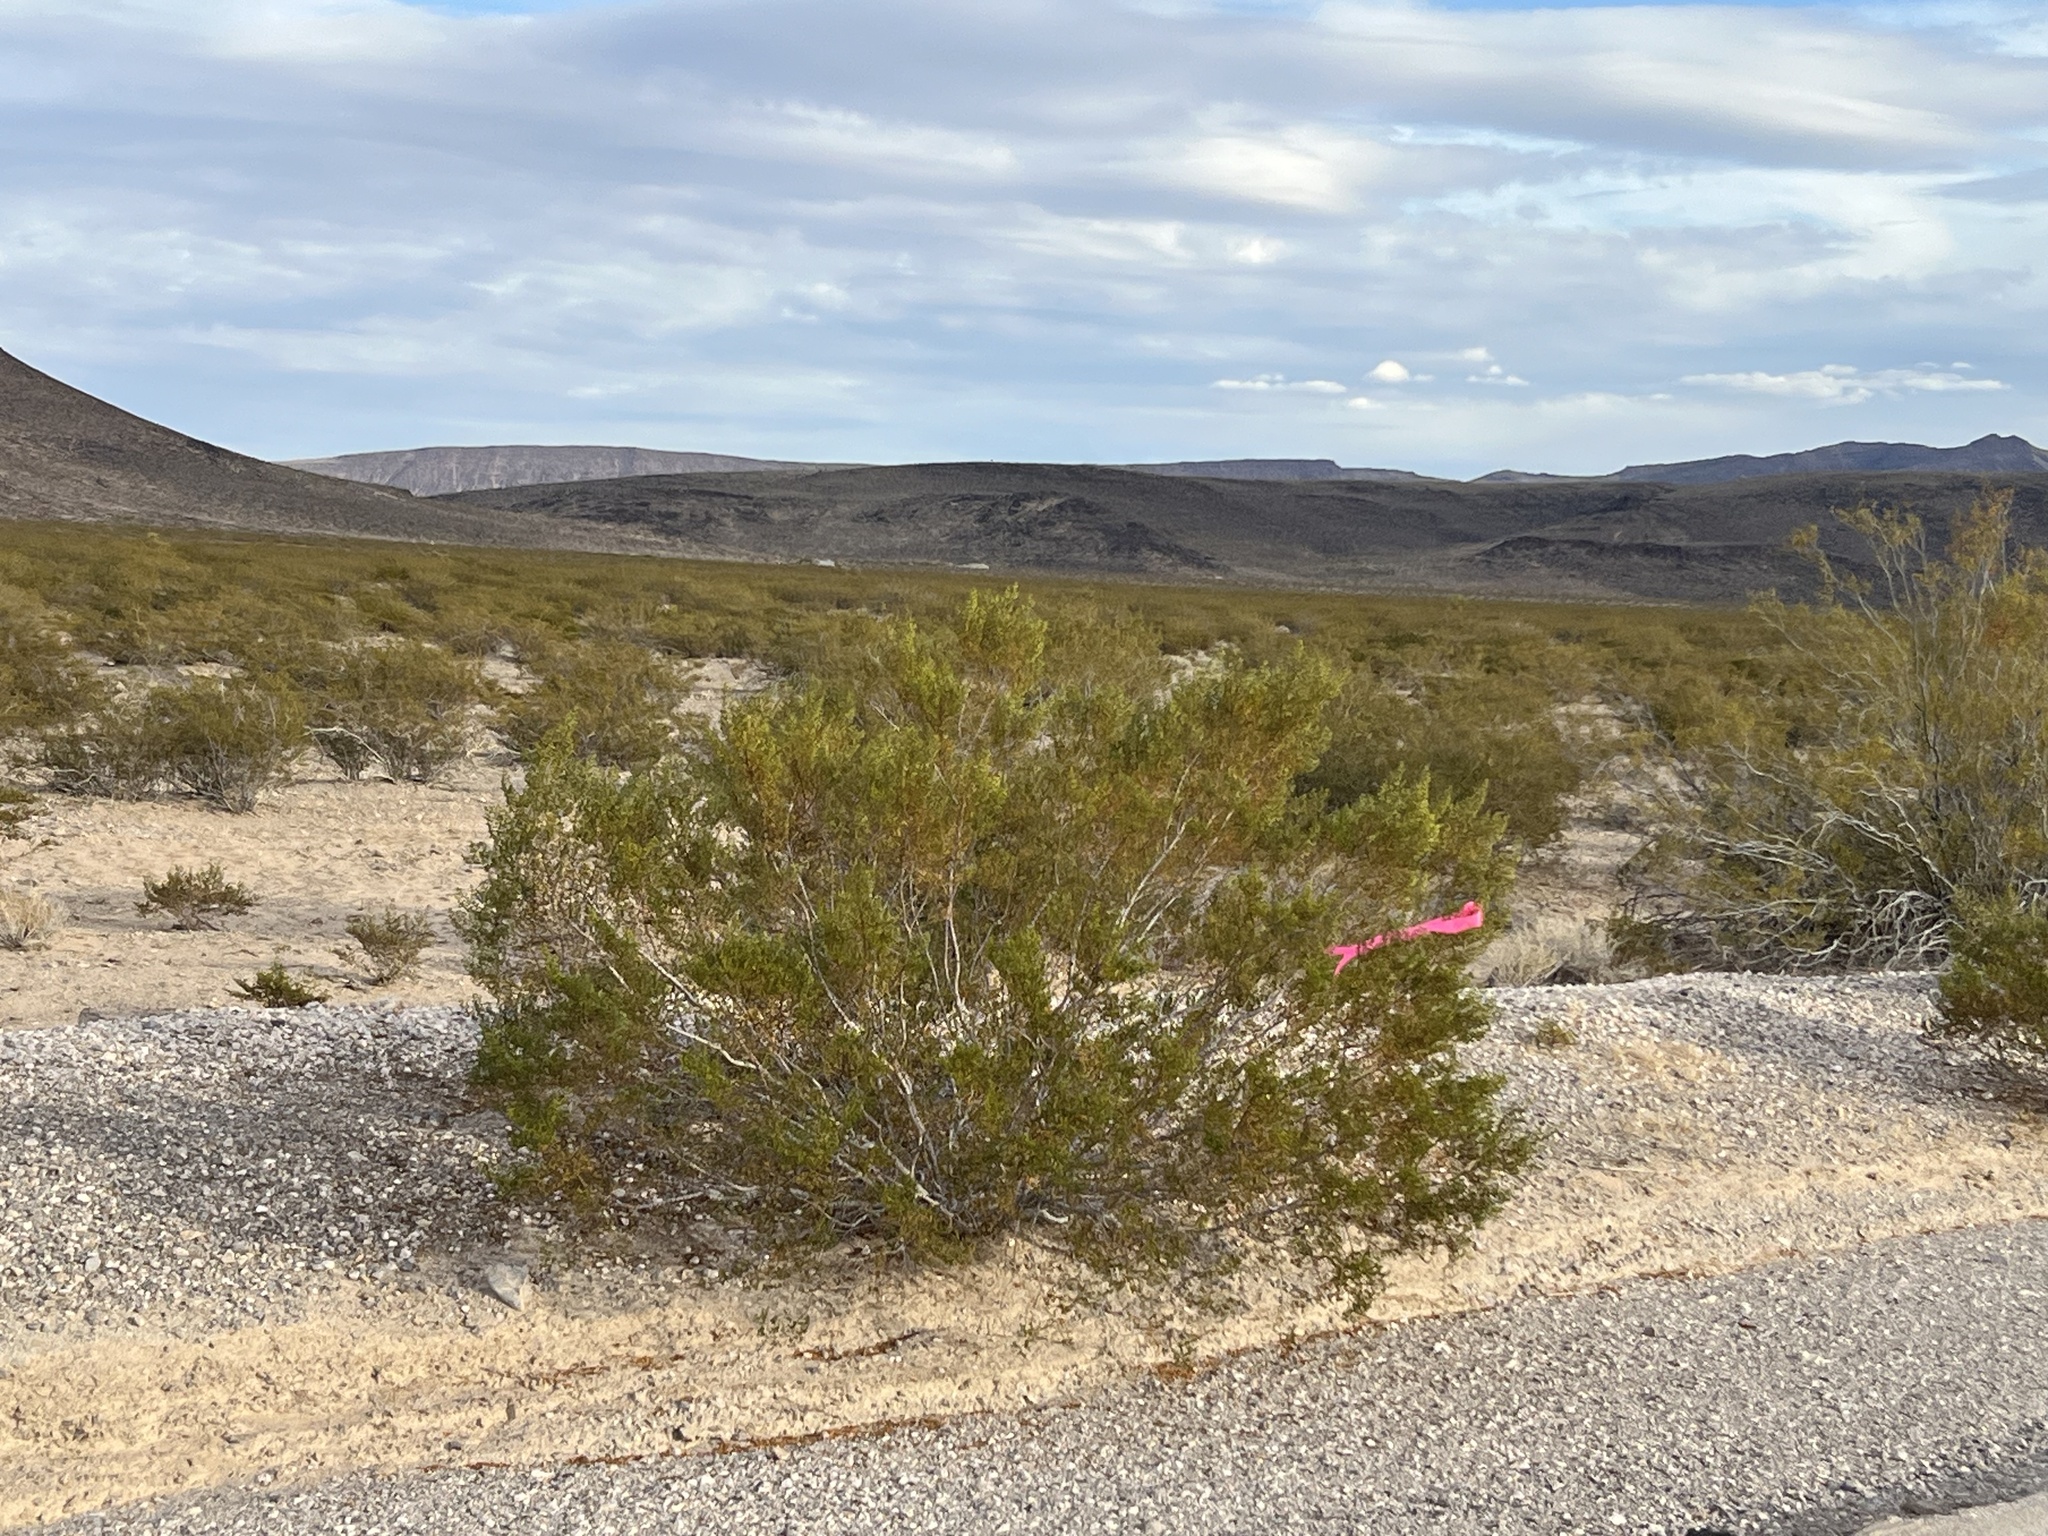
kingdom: Plantae
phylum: Tracheophyta
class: Magnoliopsida
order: Zygophyllales
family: Zygophyllaceae
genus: Larrea
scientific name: Larrea tridentata
